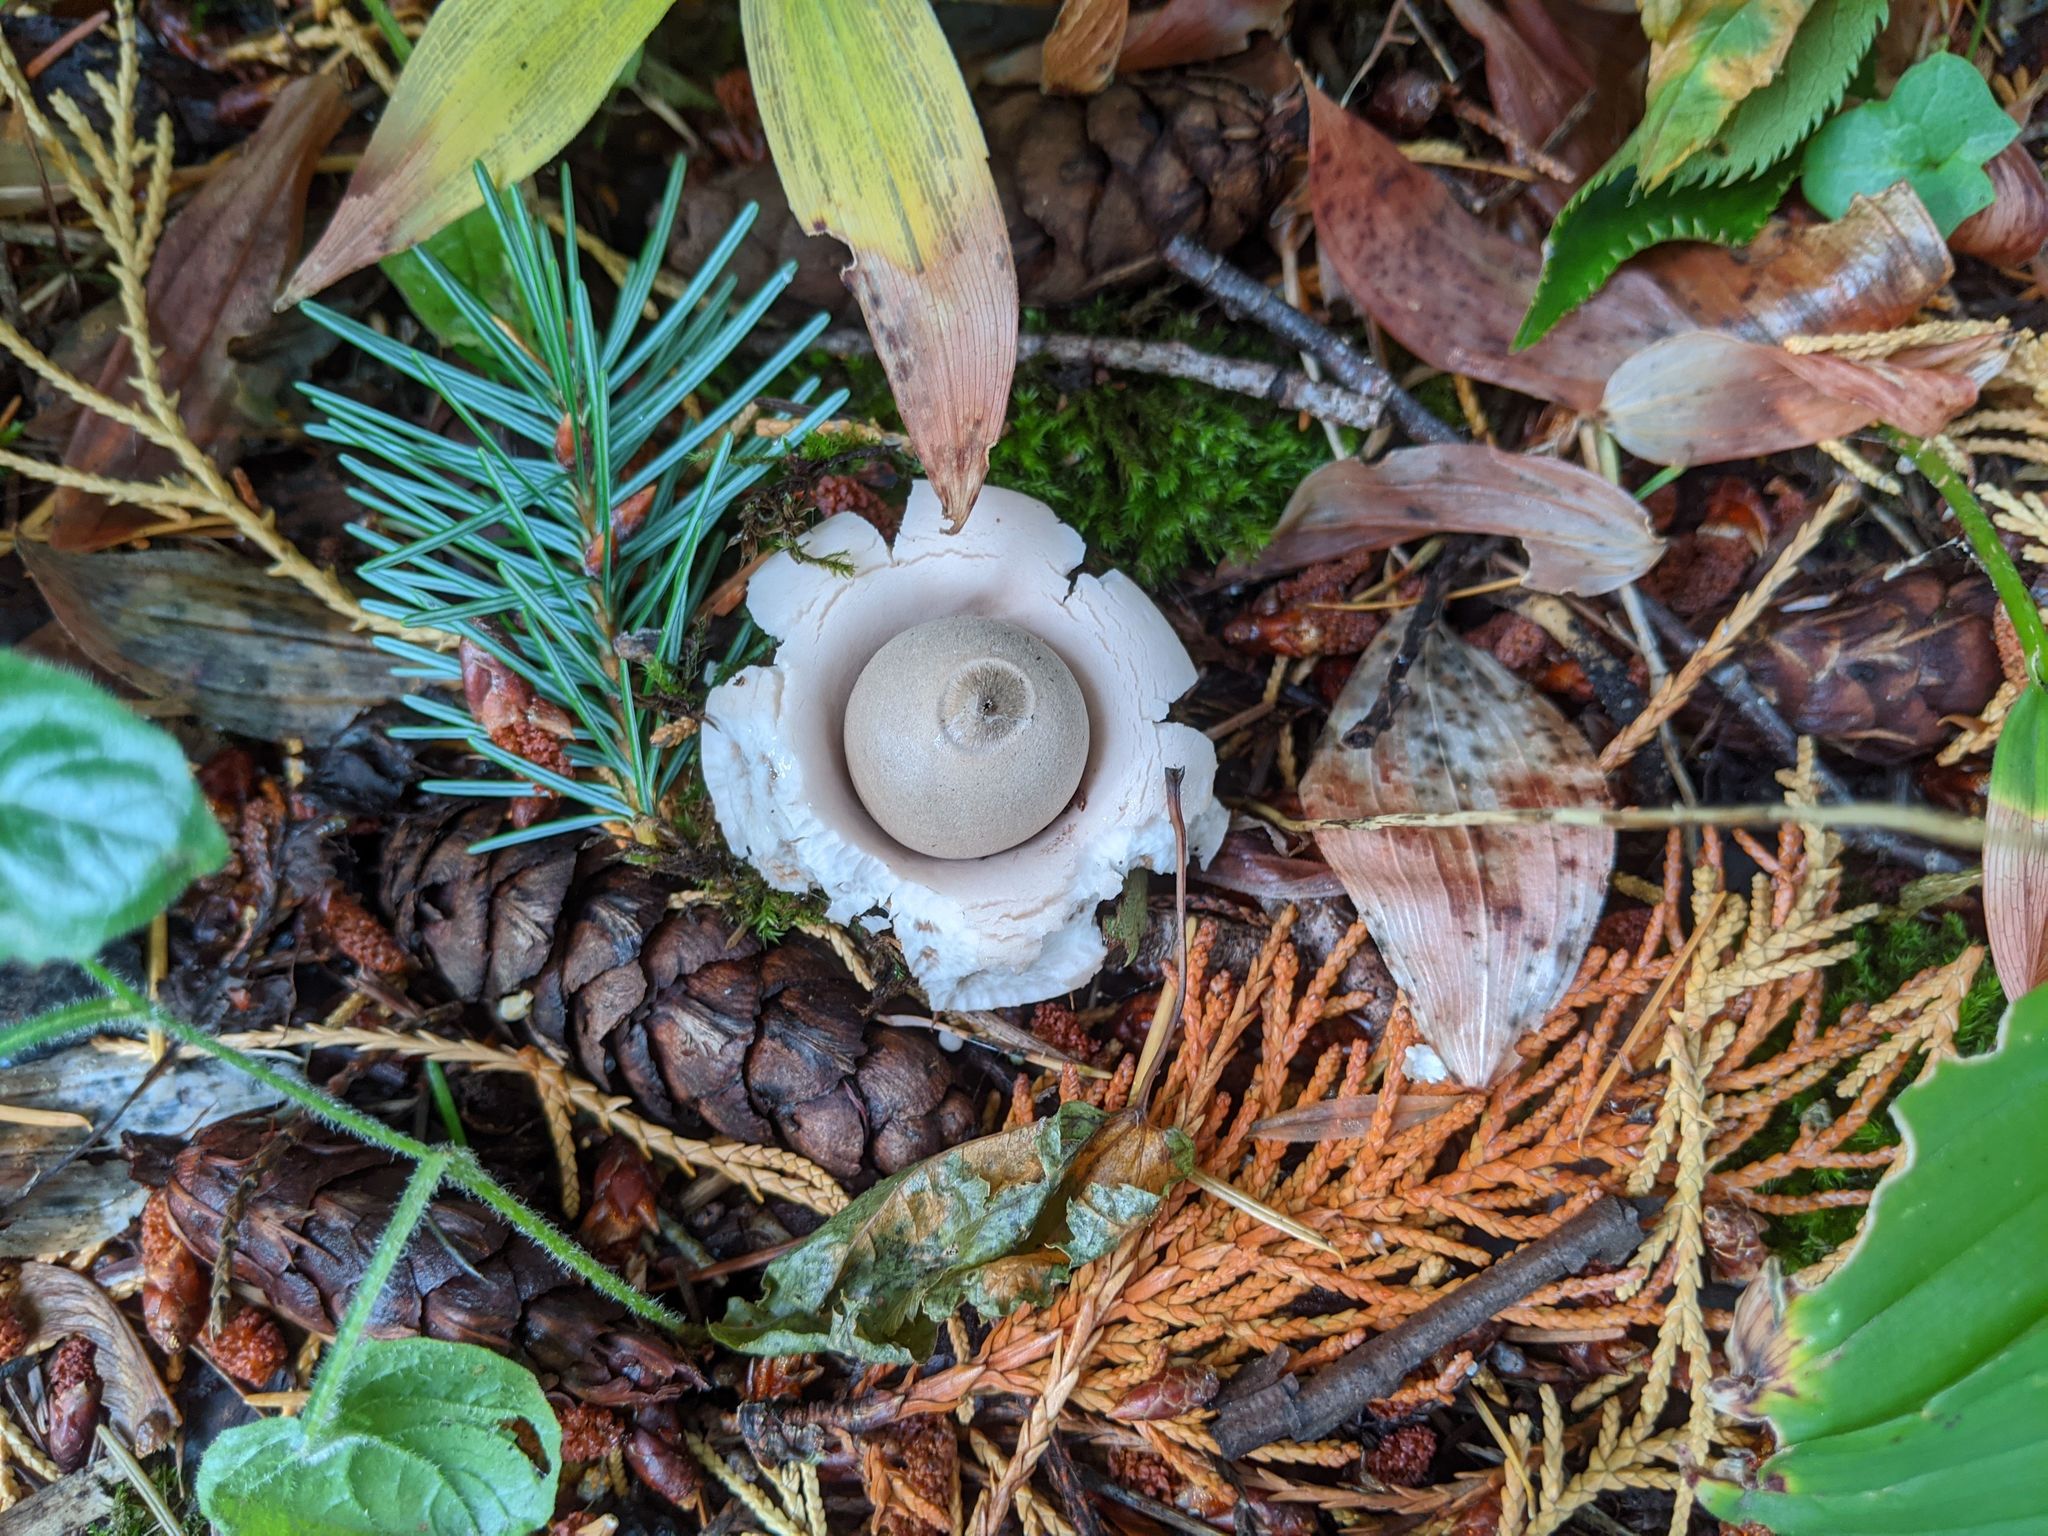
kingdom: Fungi
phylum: Basidiomycota
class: Agaricomycetes
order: Geastrales
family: Geastraceae
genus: Geastrum
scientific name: Geastrum saccatum
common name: Rounded earthstar
